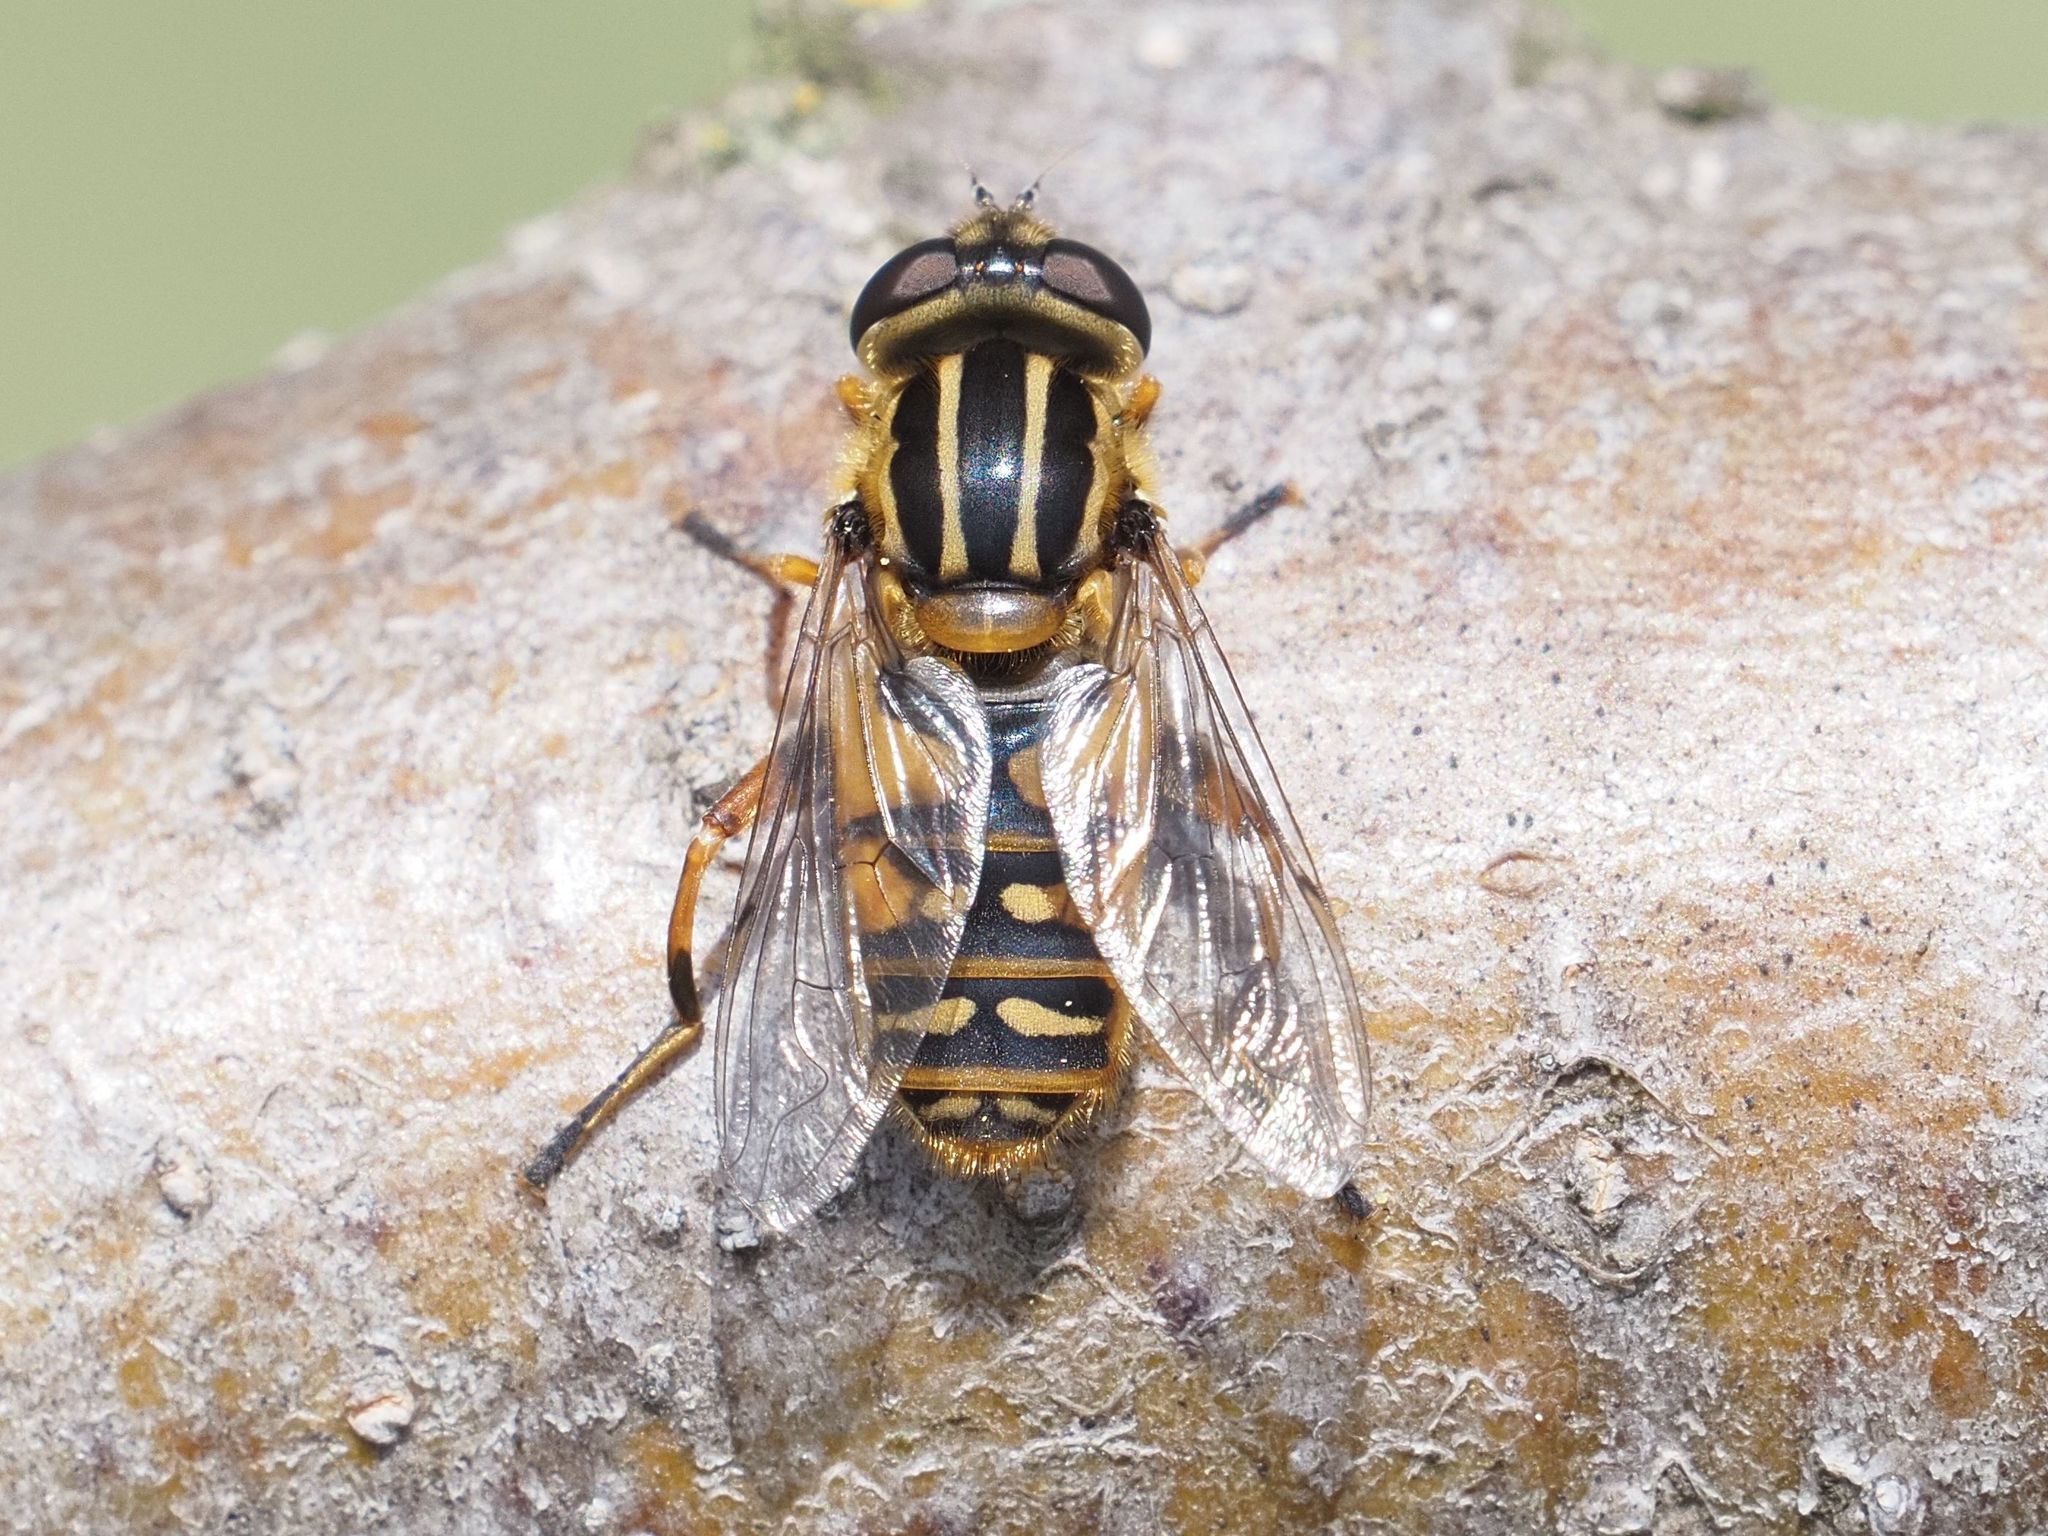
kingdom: Animalia
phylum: Arthropoda
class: Insecta
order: Diptera
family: Syrphidae
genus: Helophilus
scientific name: Helophilus pendulus
